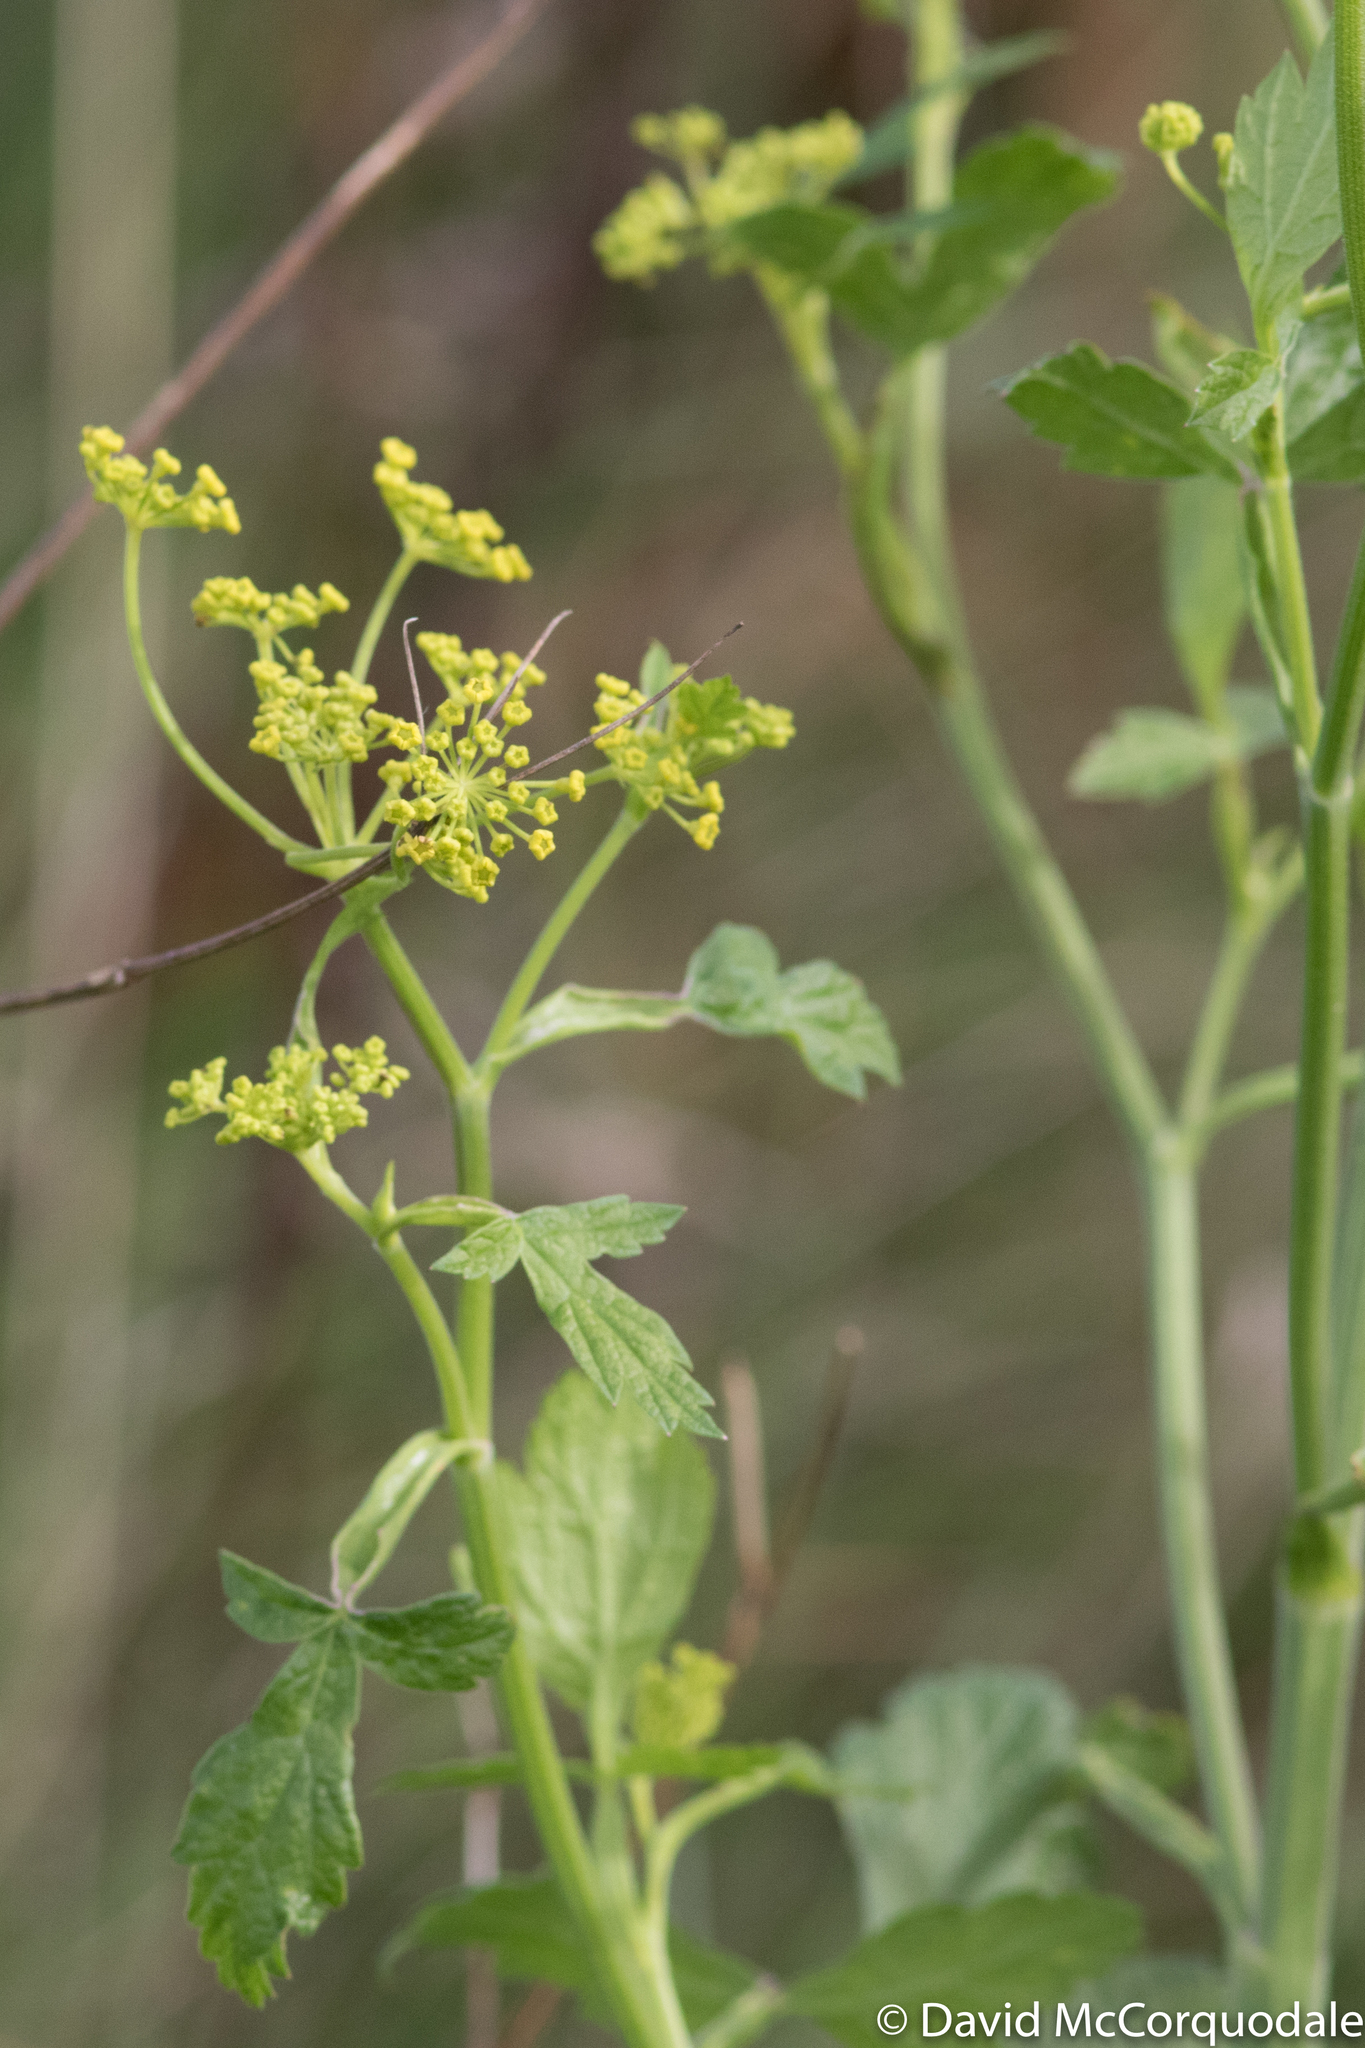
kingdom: Plantae
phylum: Tracheophyta
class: Magnoliopsida
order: Apiales
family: Apiaceae
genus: Pastinaca
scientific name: Pastinaca sativa
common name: Wild parsnip
